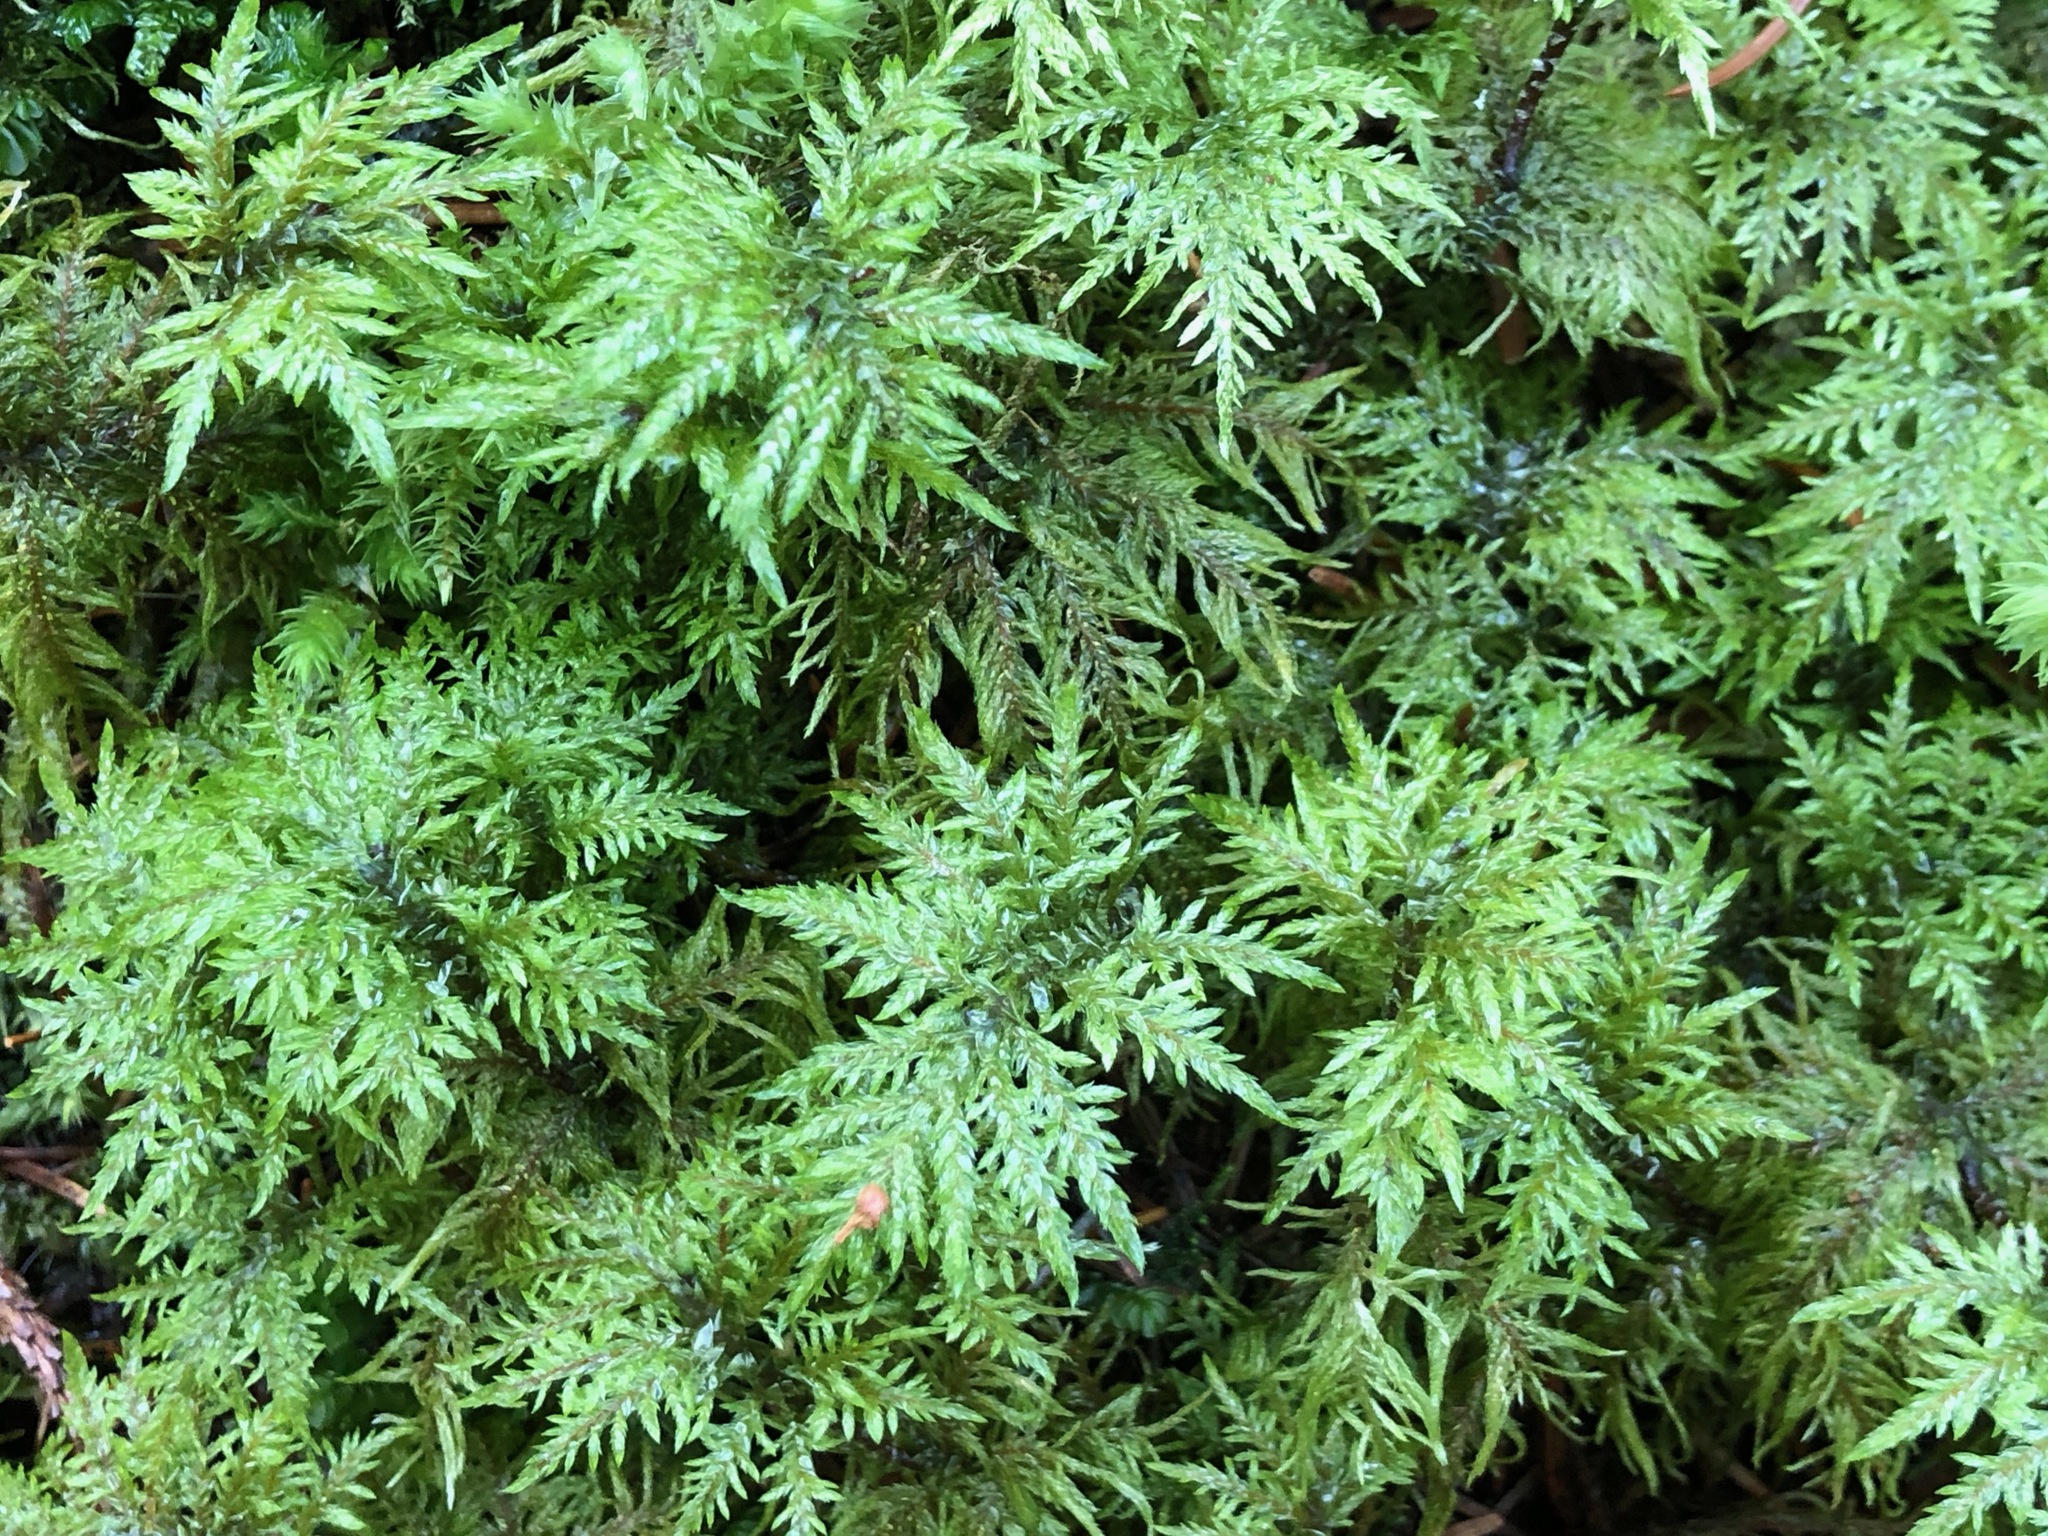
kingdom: Plantae
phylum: Bryophyta
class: Bryopsida
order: Hypnales
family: Hylocomiaceae
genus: Hylocomium
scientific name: Hylocomium splendens
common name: Stairstep moss
